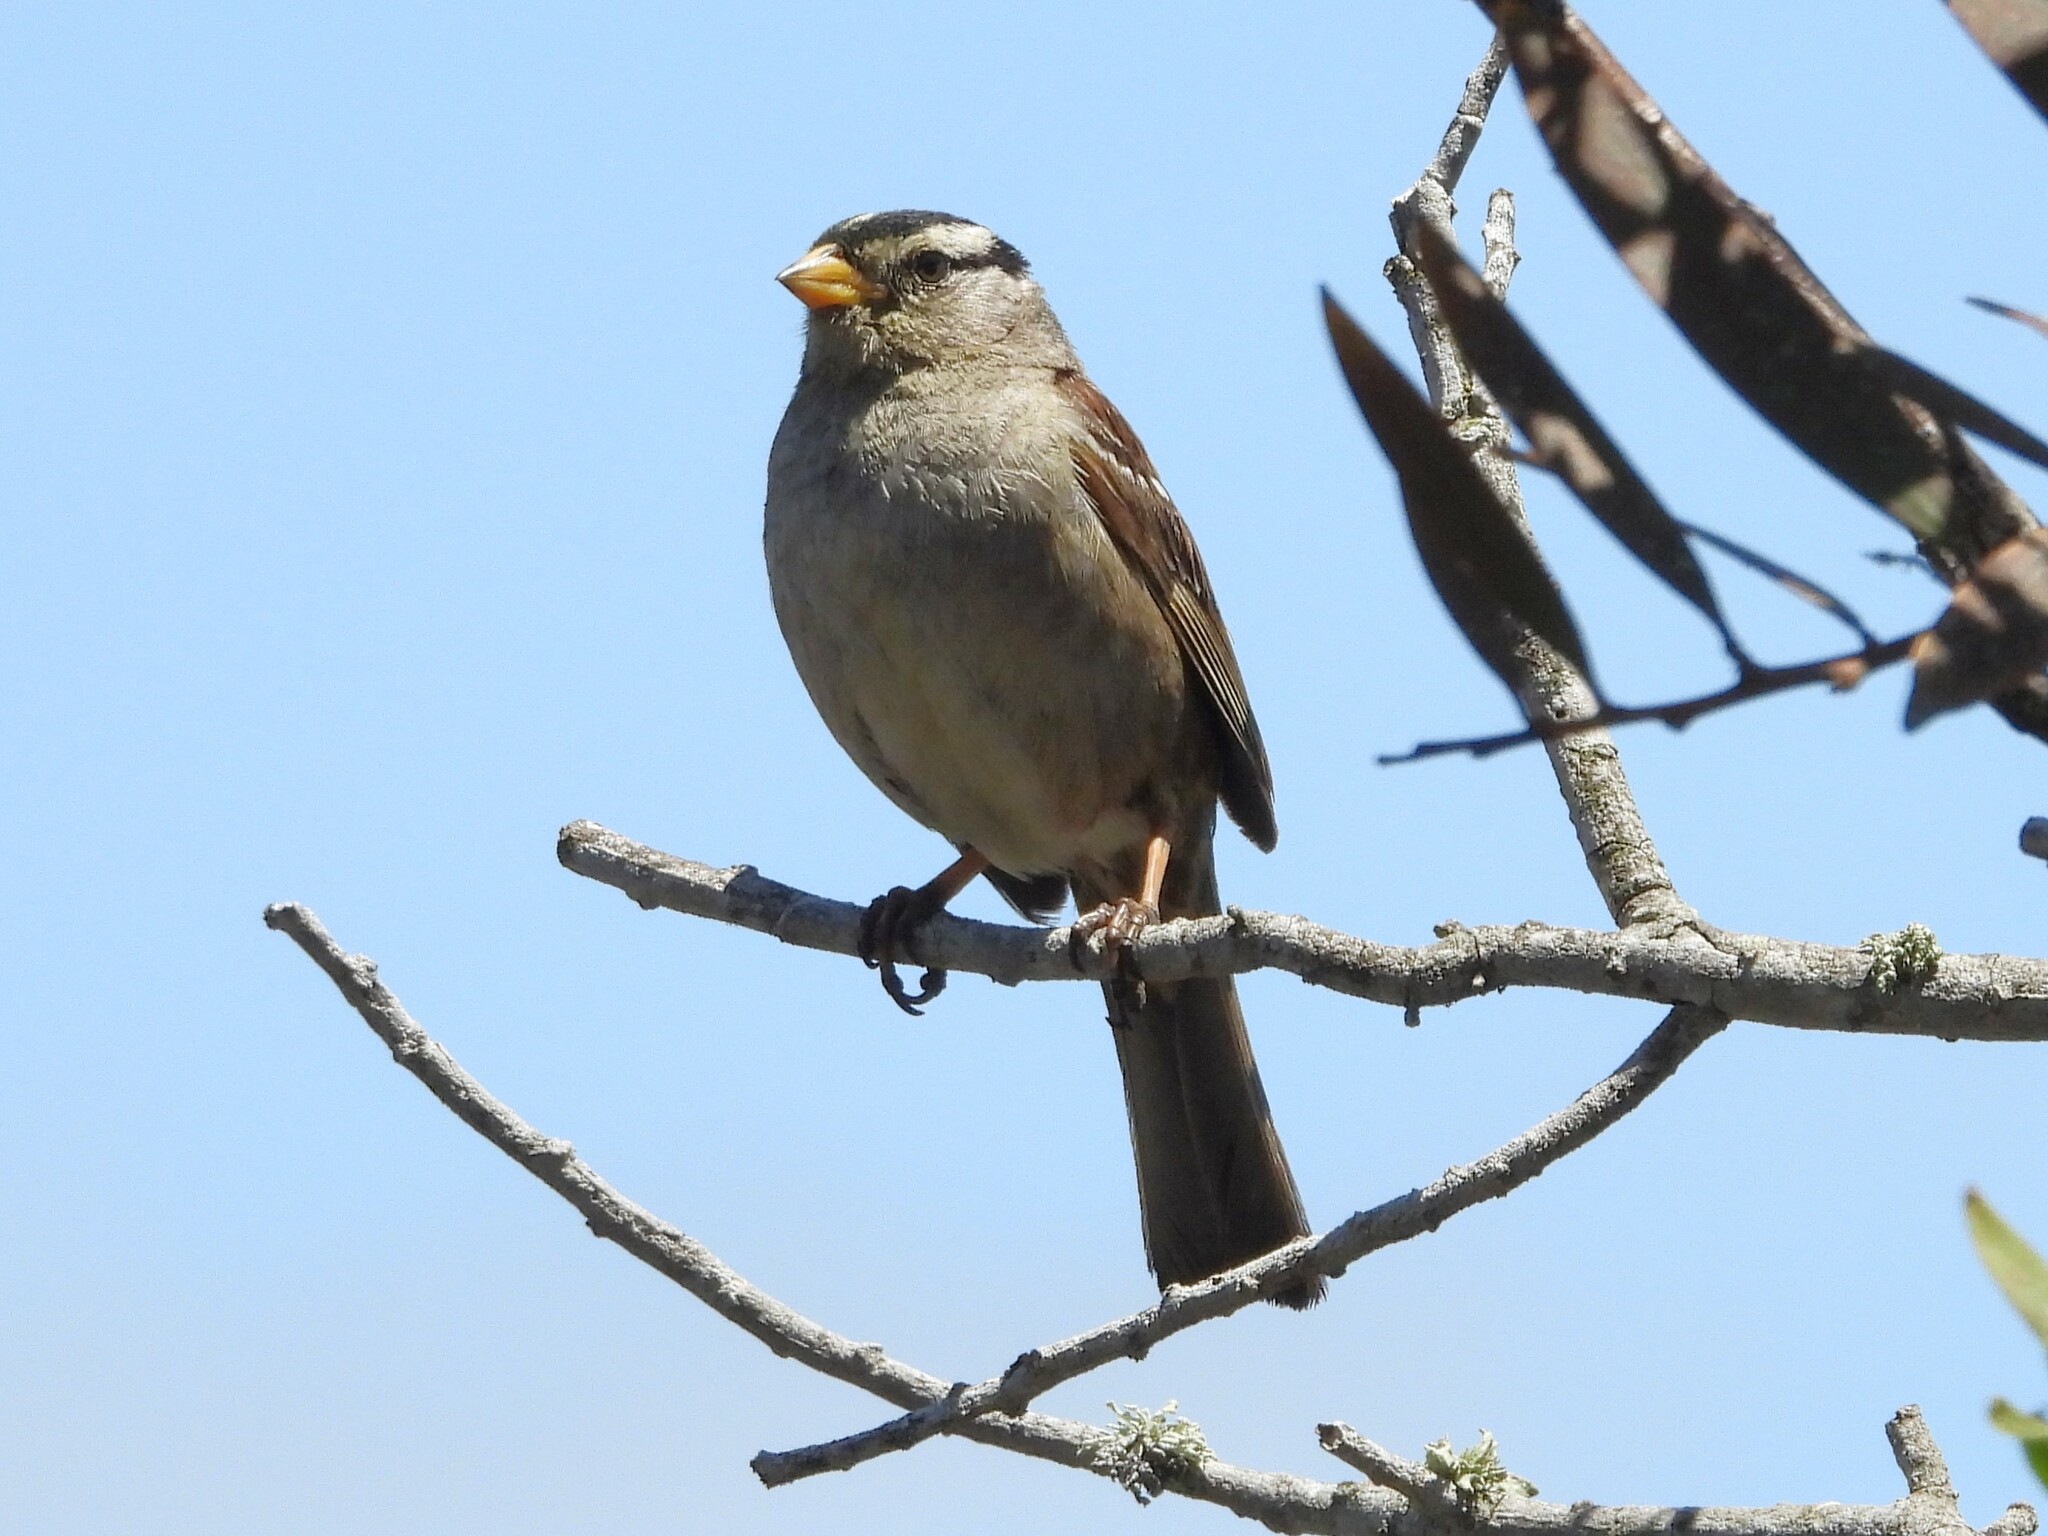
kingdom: Animalia
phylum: Chordata
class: Aves
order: Passeriformes
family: Passerellidae
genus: Zonotrichia
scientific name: Zonotrichia leucophrys
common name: White-crowned sparrow
